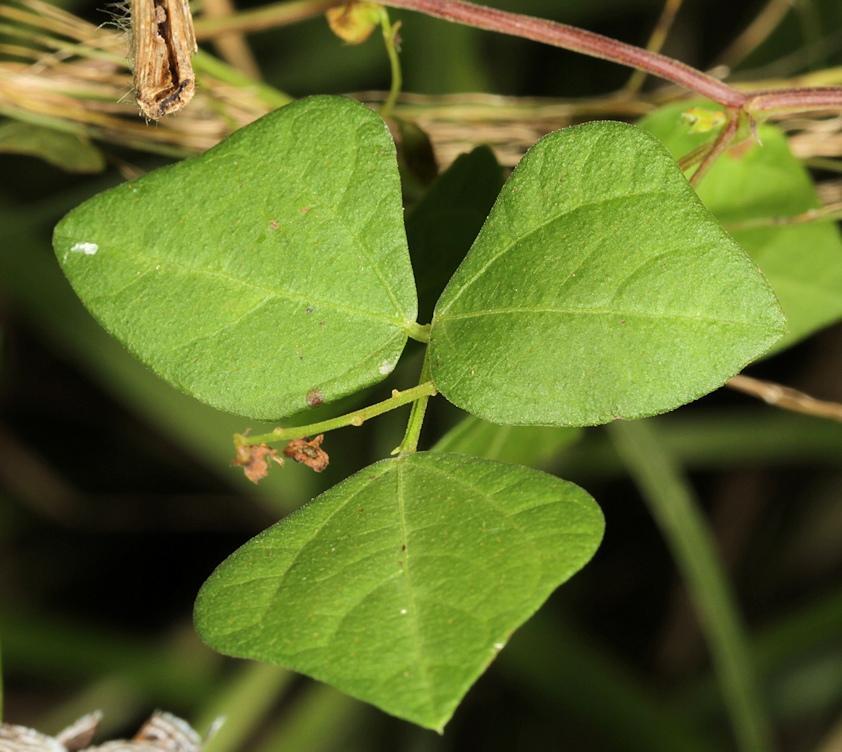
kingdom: Plantae
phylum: Tracheophyta
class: Magnoliopsida
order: Fabales
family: Fabaceae
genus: Rhynchosia
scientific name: Rhynchosia caribaea
